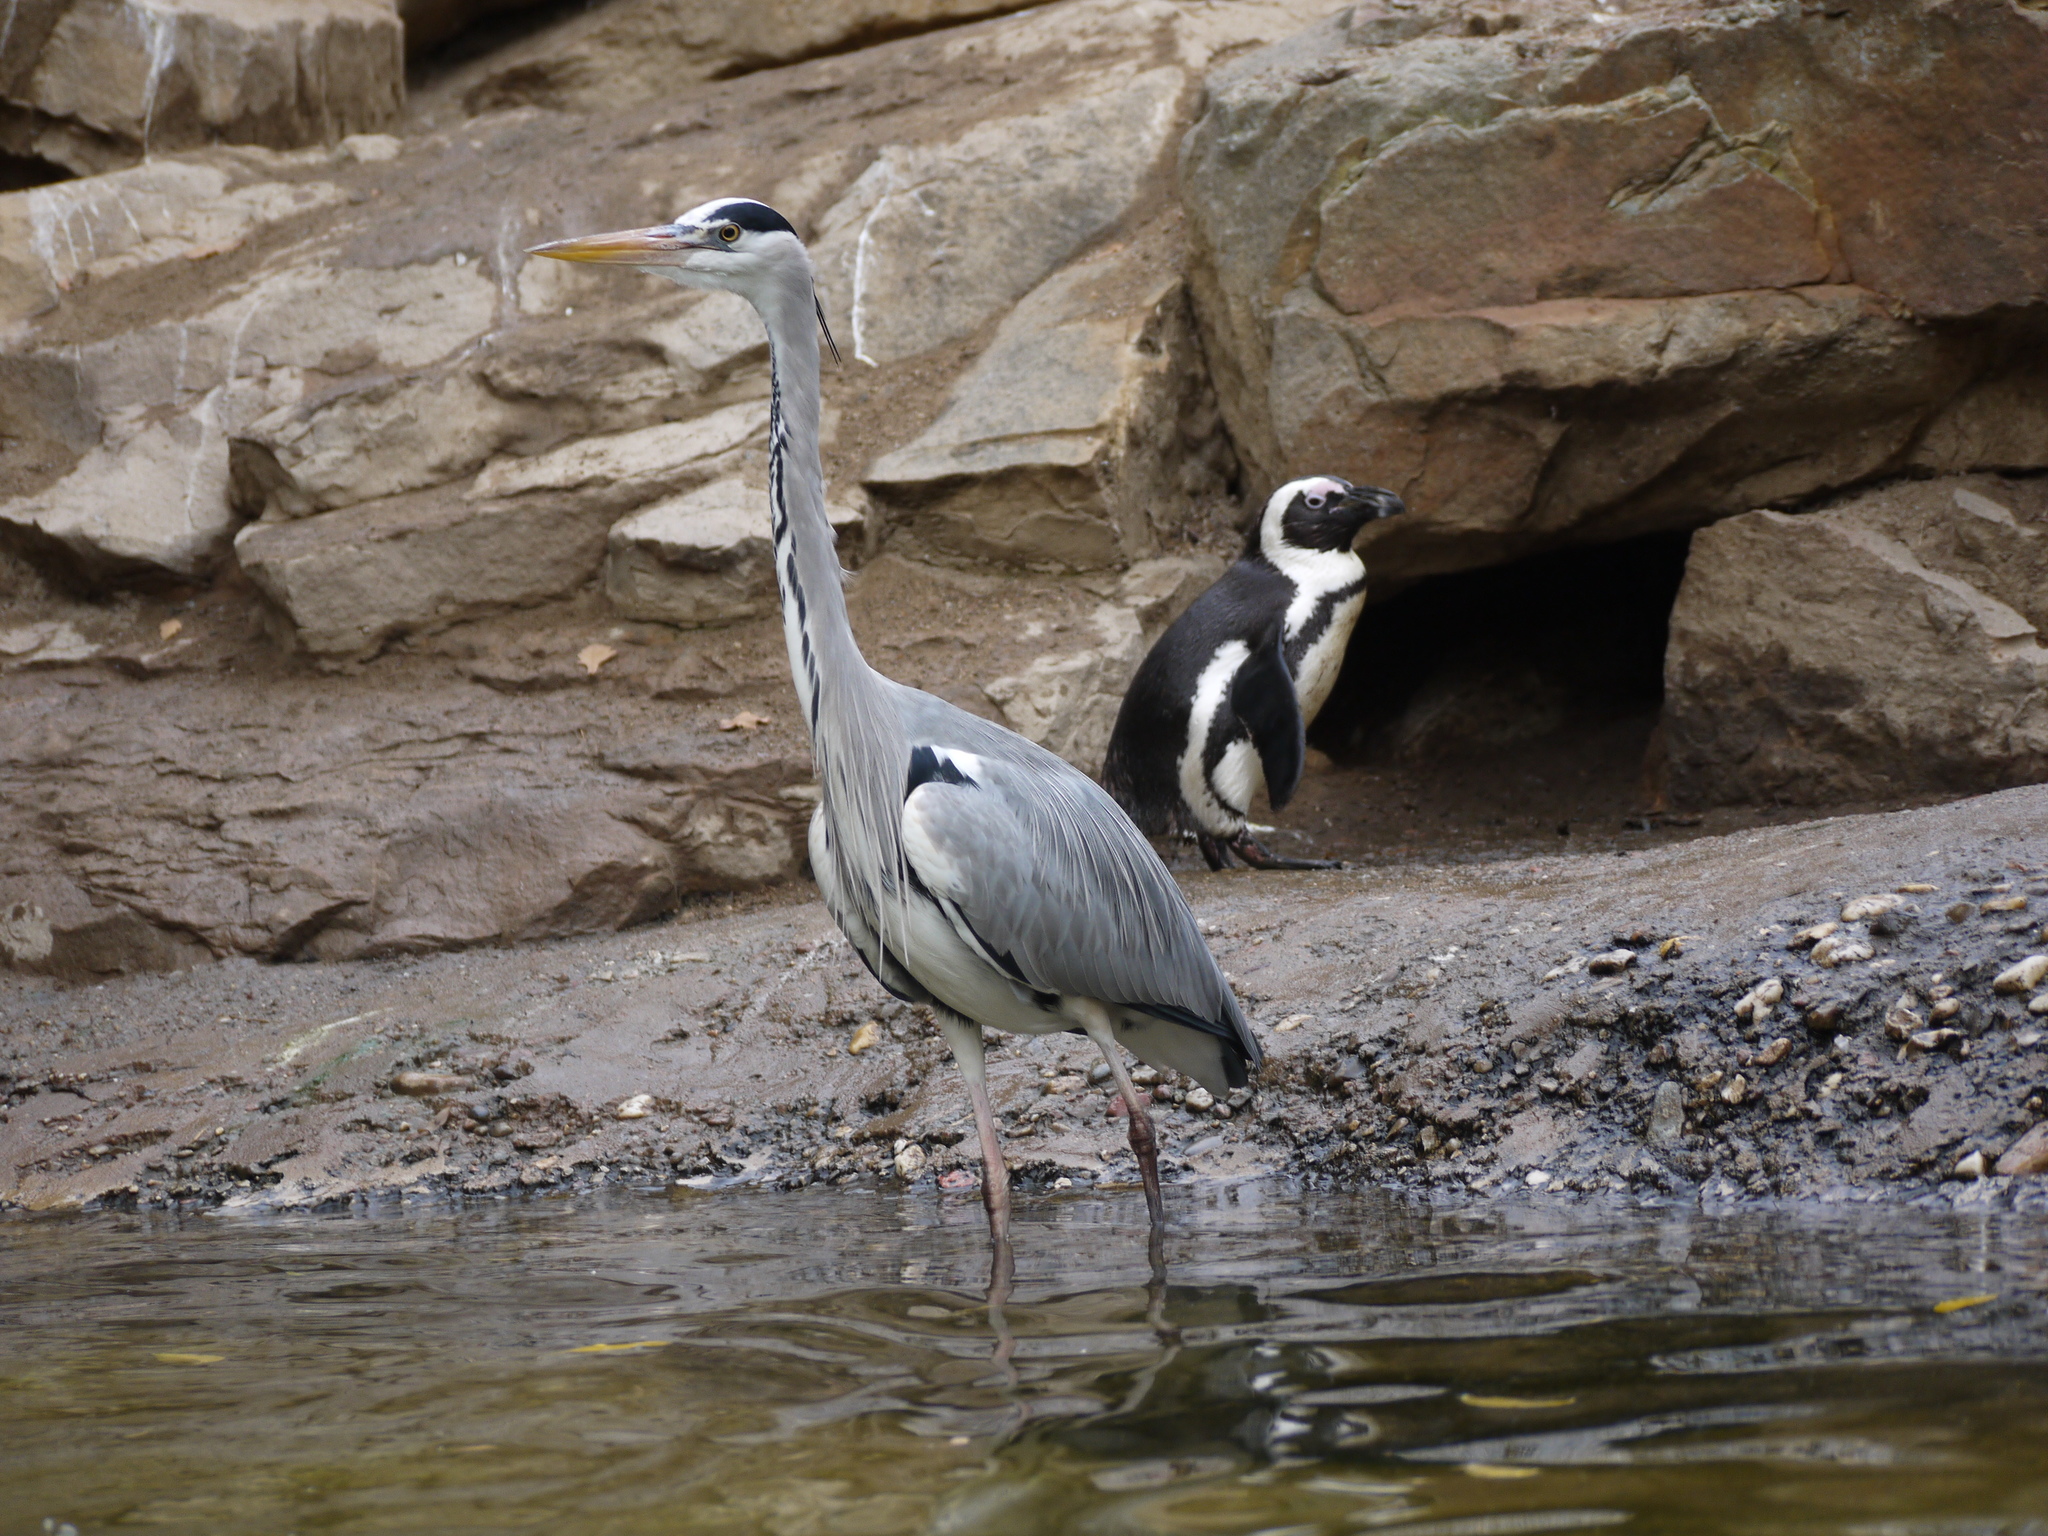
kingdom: Animalia
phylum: Chordata
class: Aves
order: Pelecaniformes
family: Ardeidae
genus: Ardea
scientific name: Ardea cinerea
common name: Grey heron
